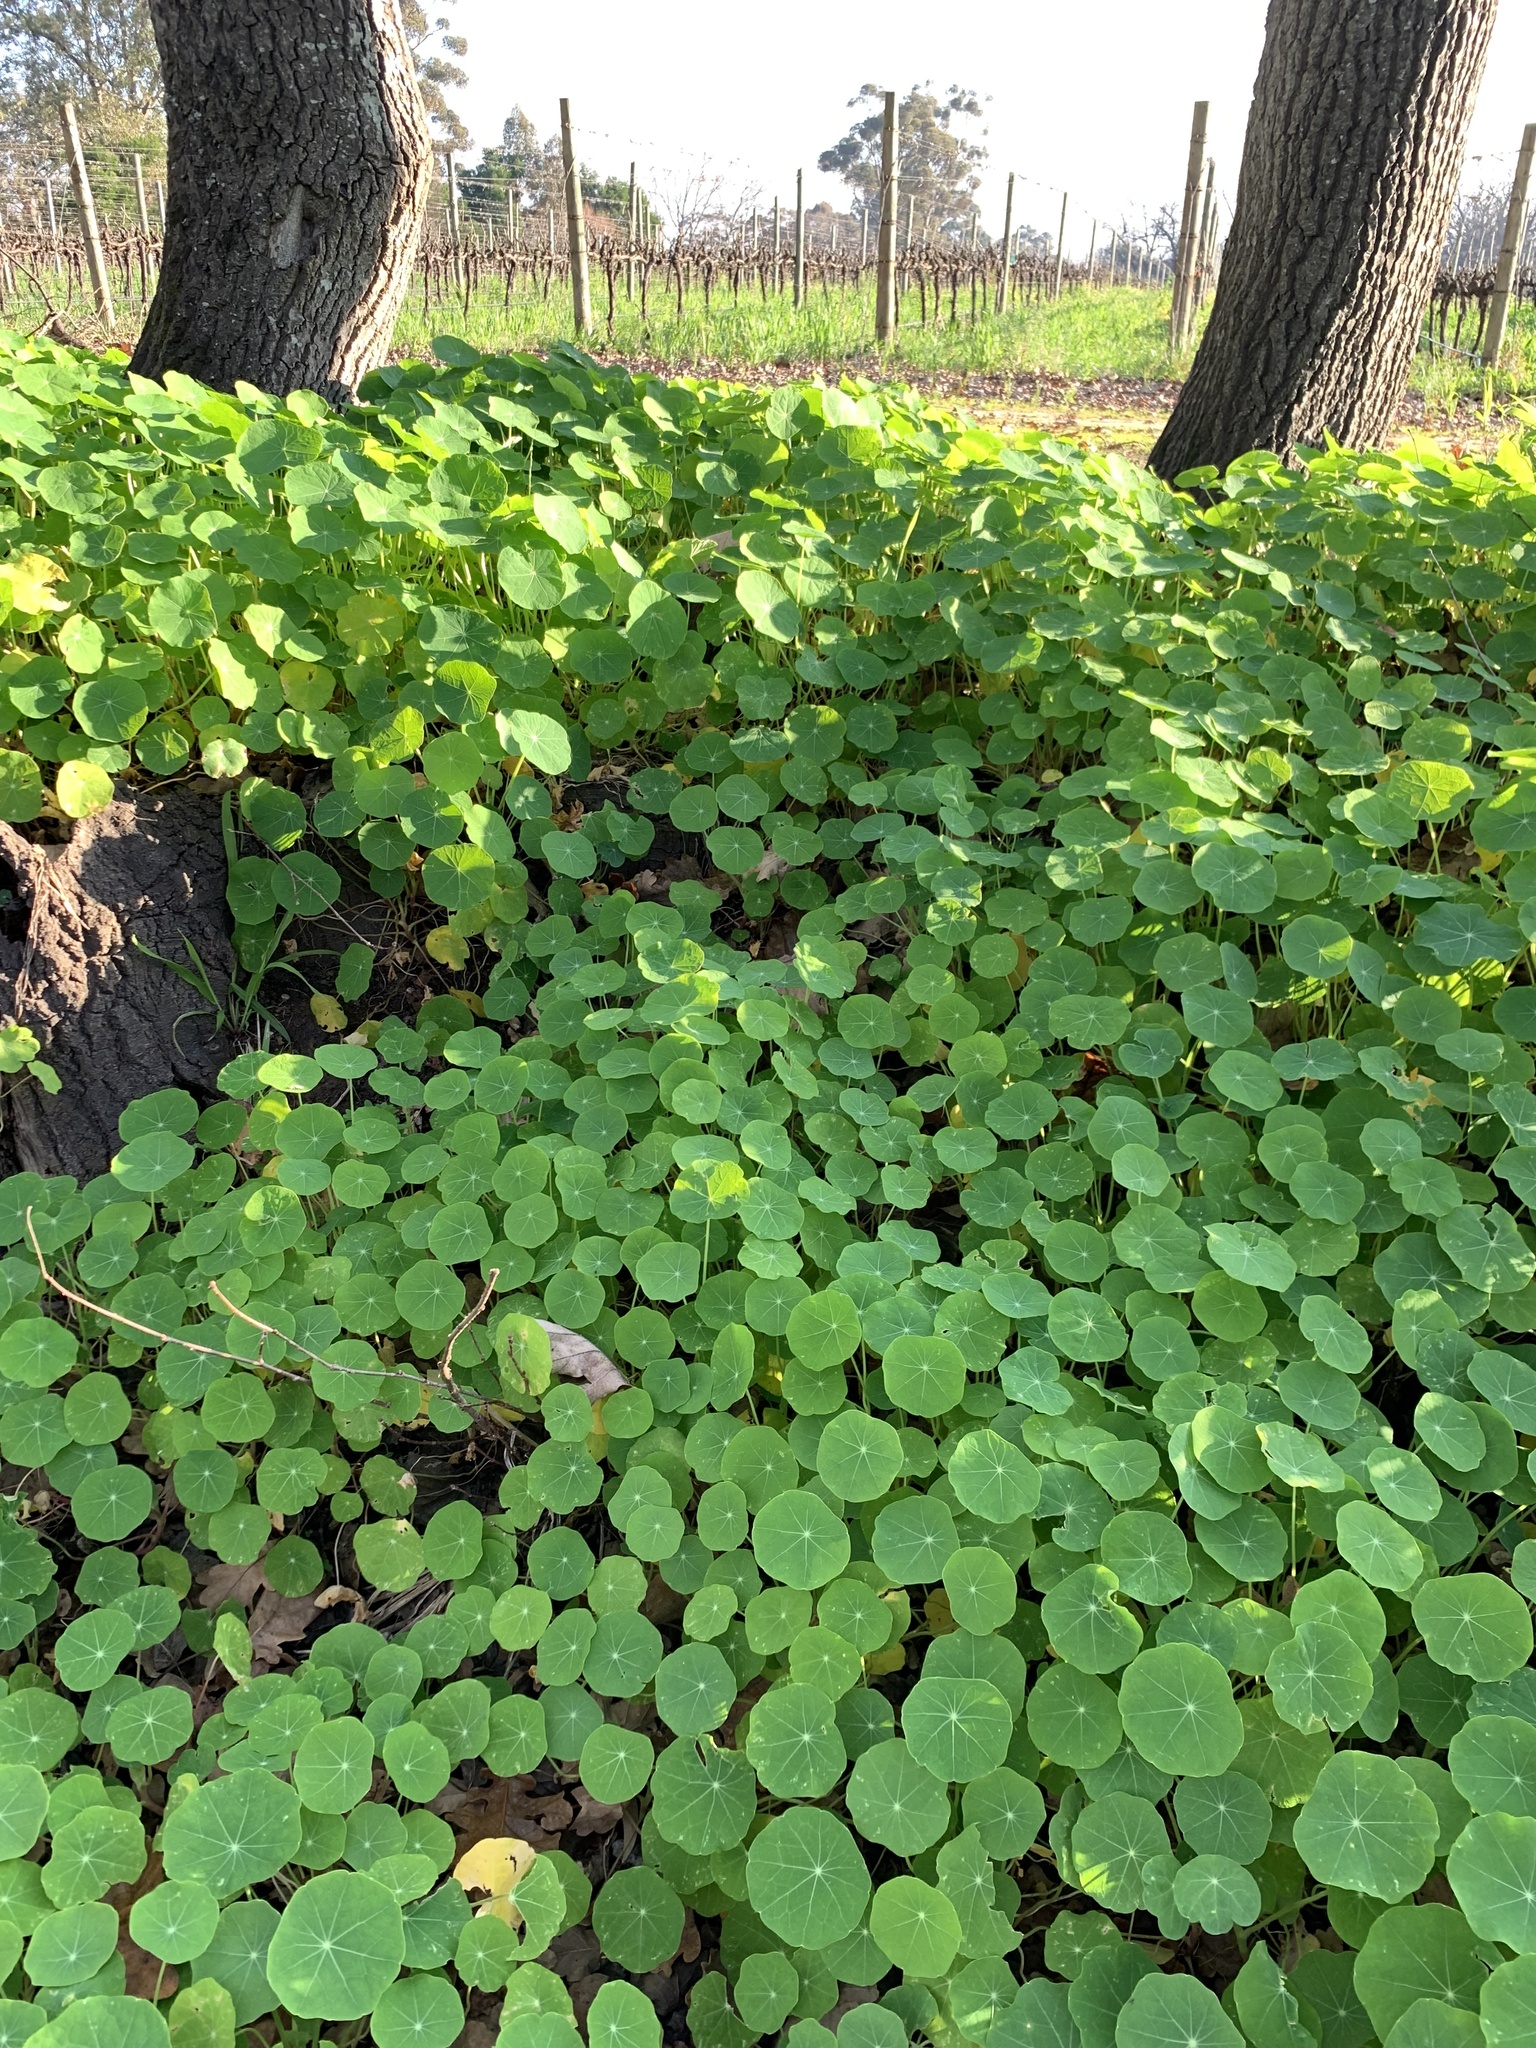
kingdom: Plantae
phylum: Tracheophyta
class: Magnoliopsida
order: Brassicales
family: Tropaeolaceae
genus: Tropaeolum
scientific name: Tropaeolum majus
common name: Nasturtium
